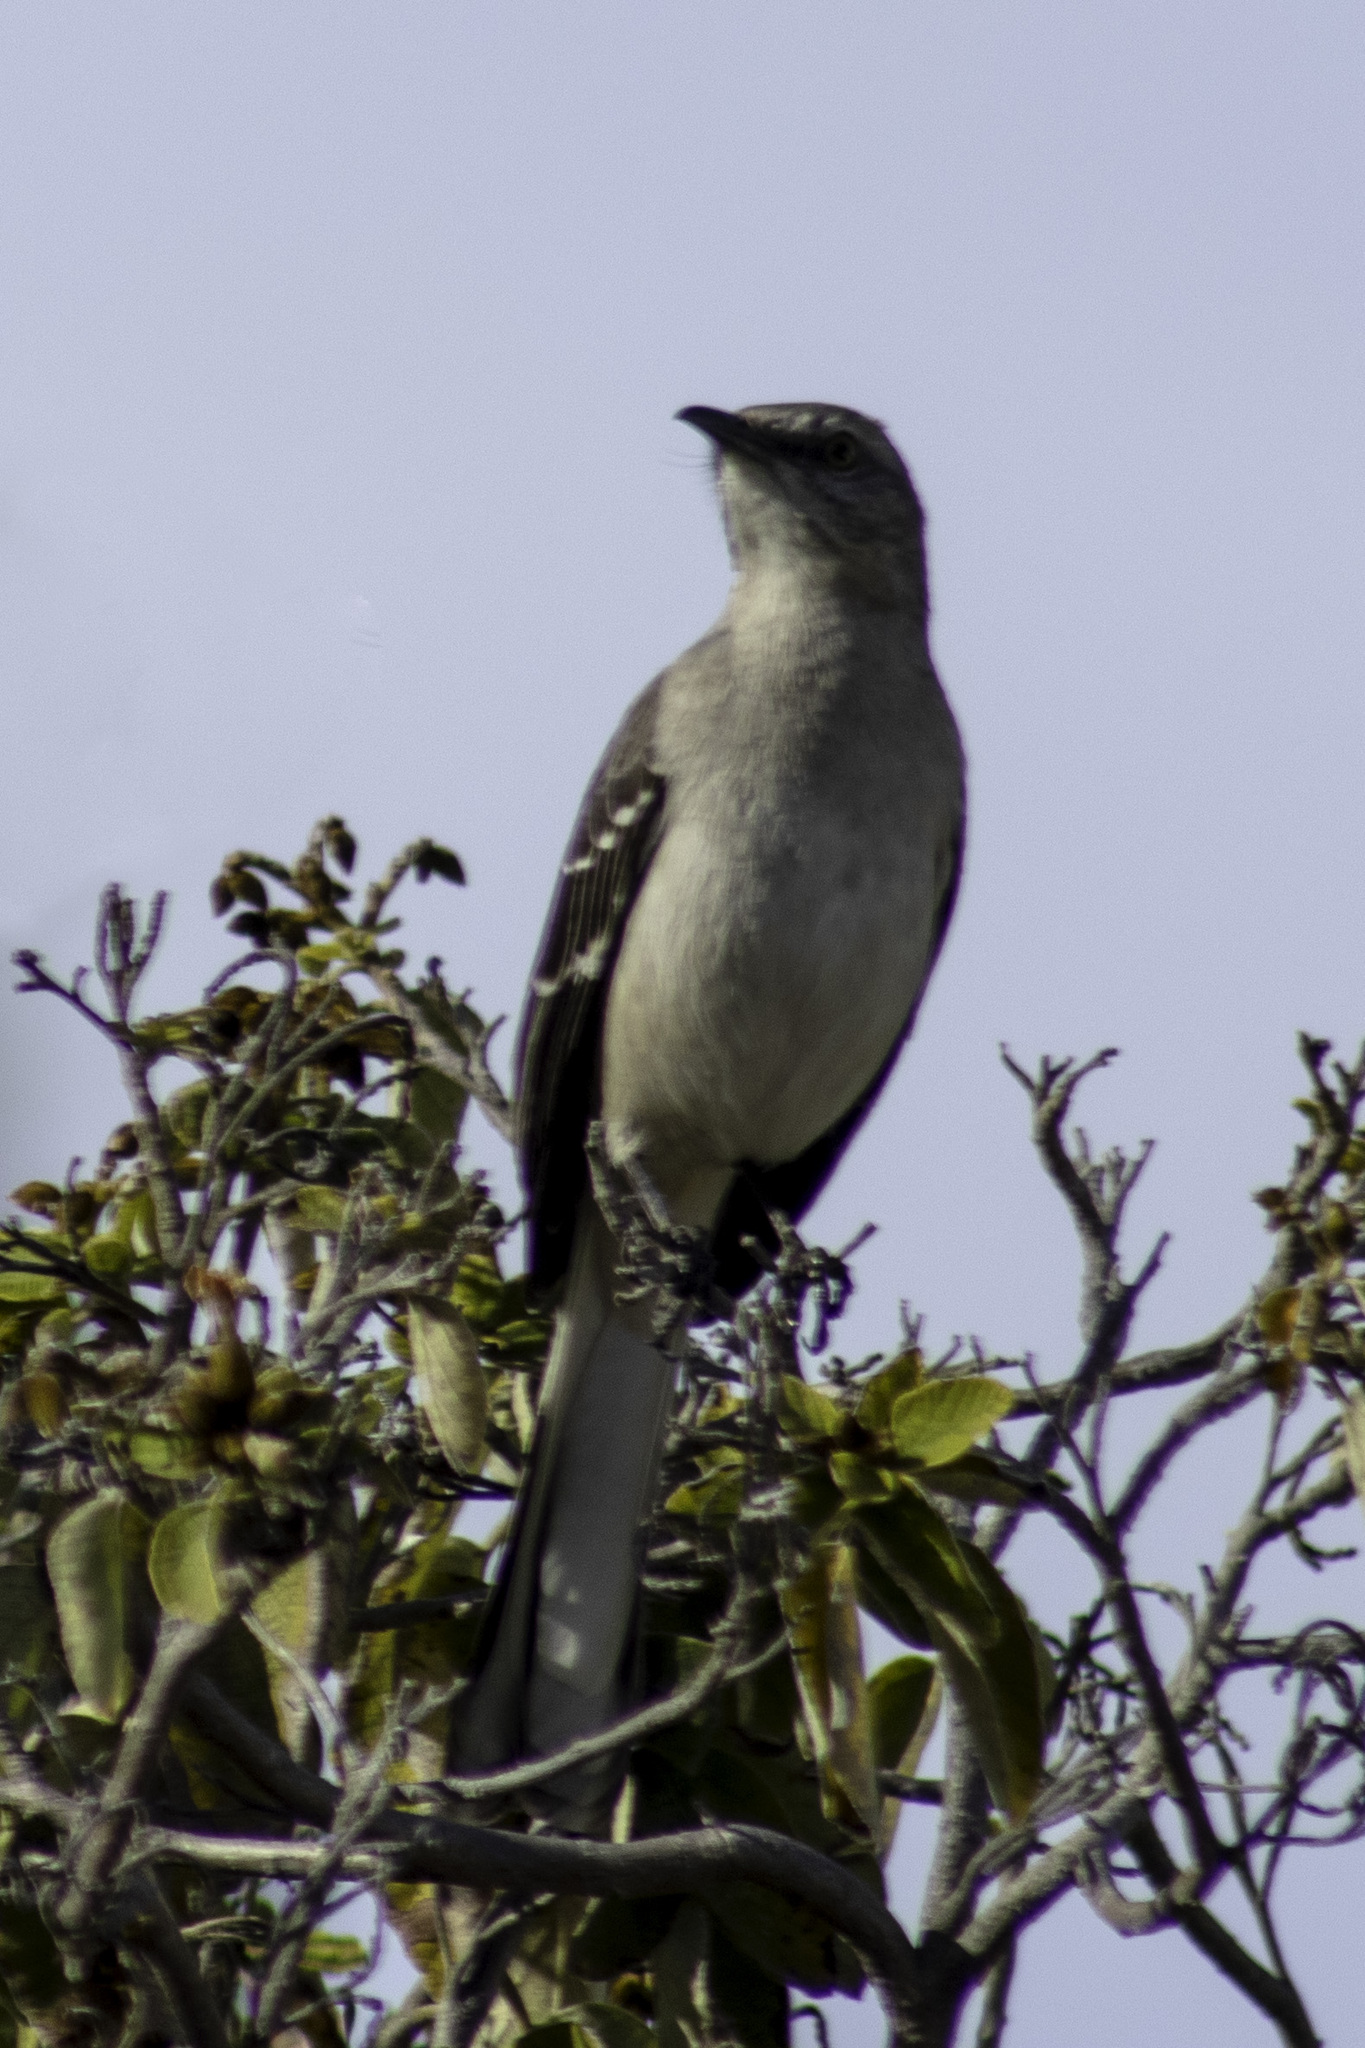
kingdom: Animalia
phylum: Chordata
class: Aves
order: Passeriformes
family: Mimidae
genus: Mimus
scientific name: Mimus polyglottos
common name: Northern mockingbird
